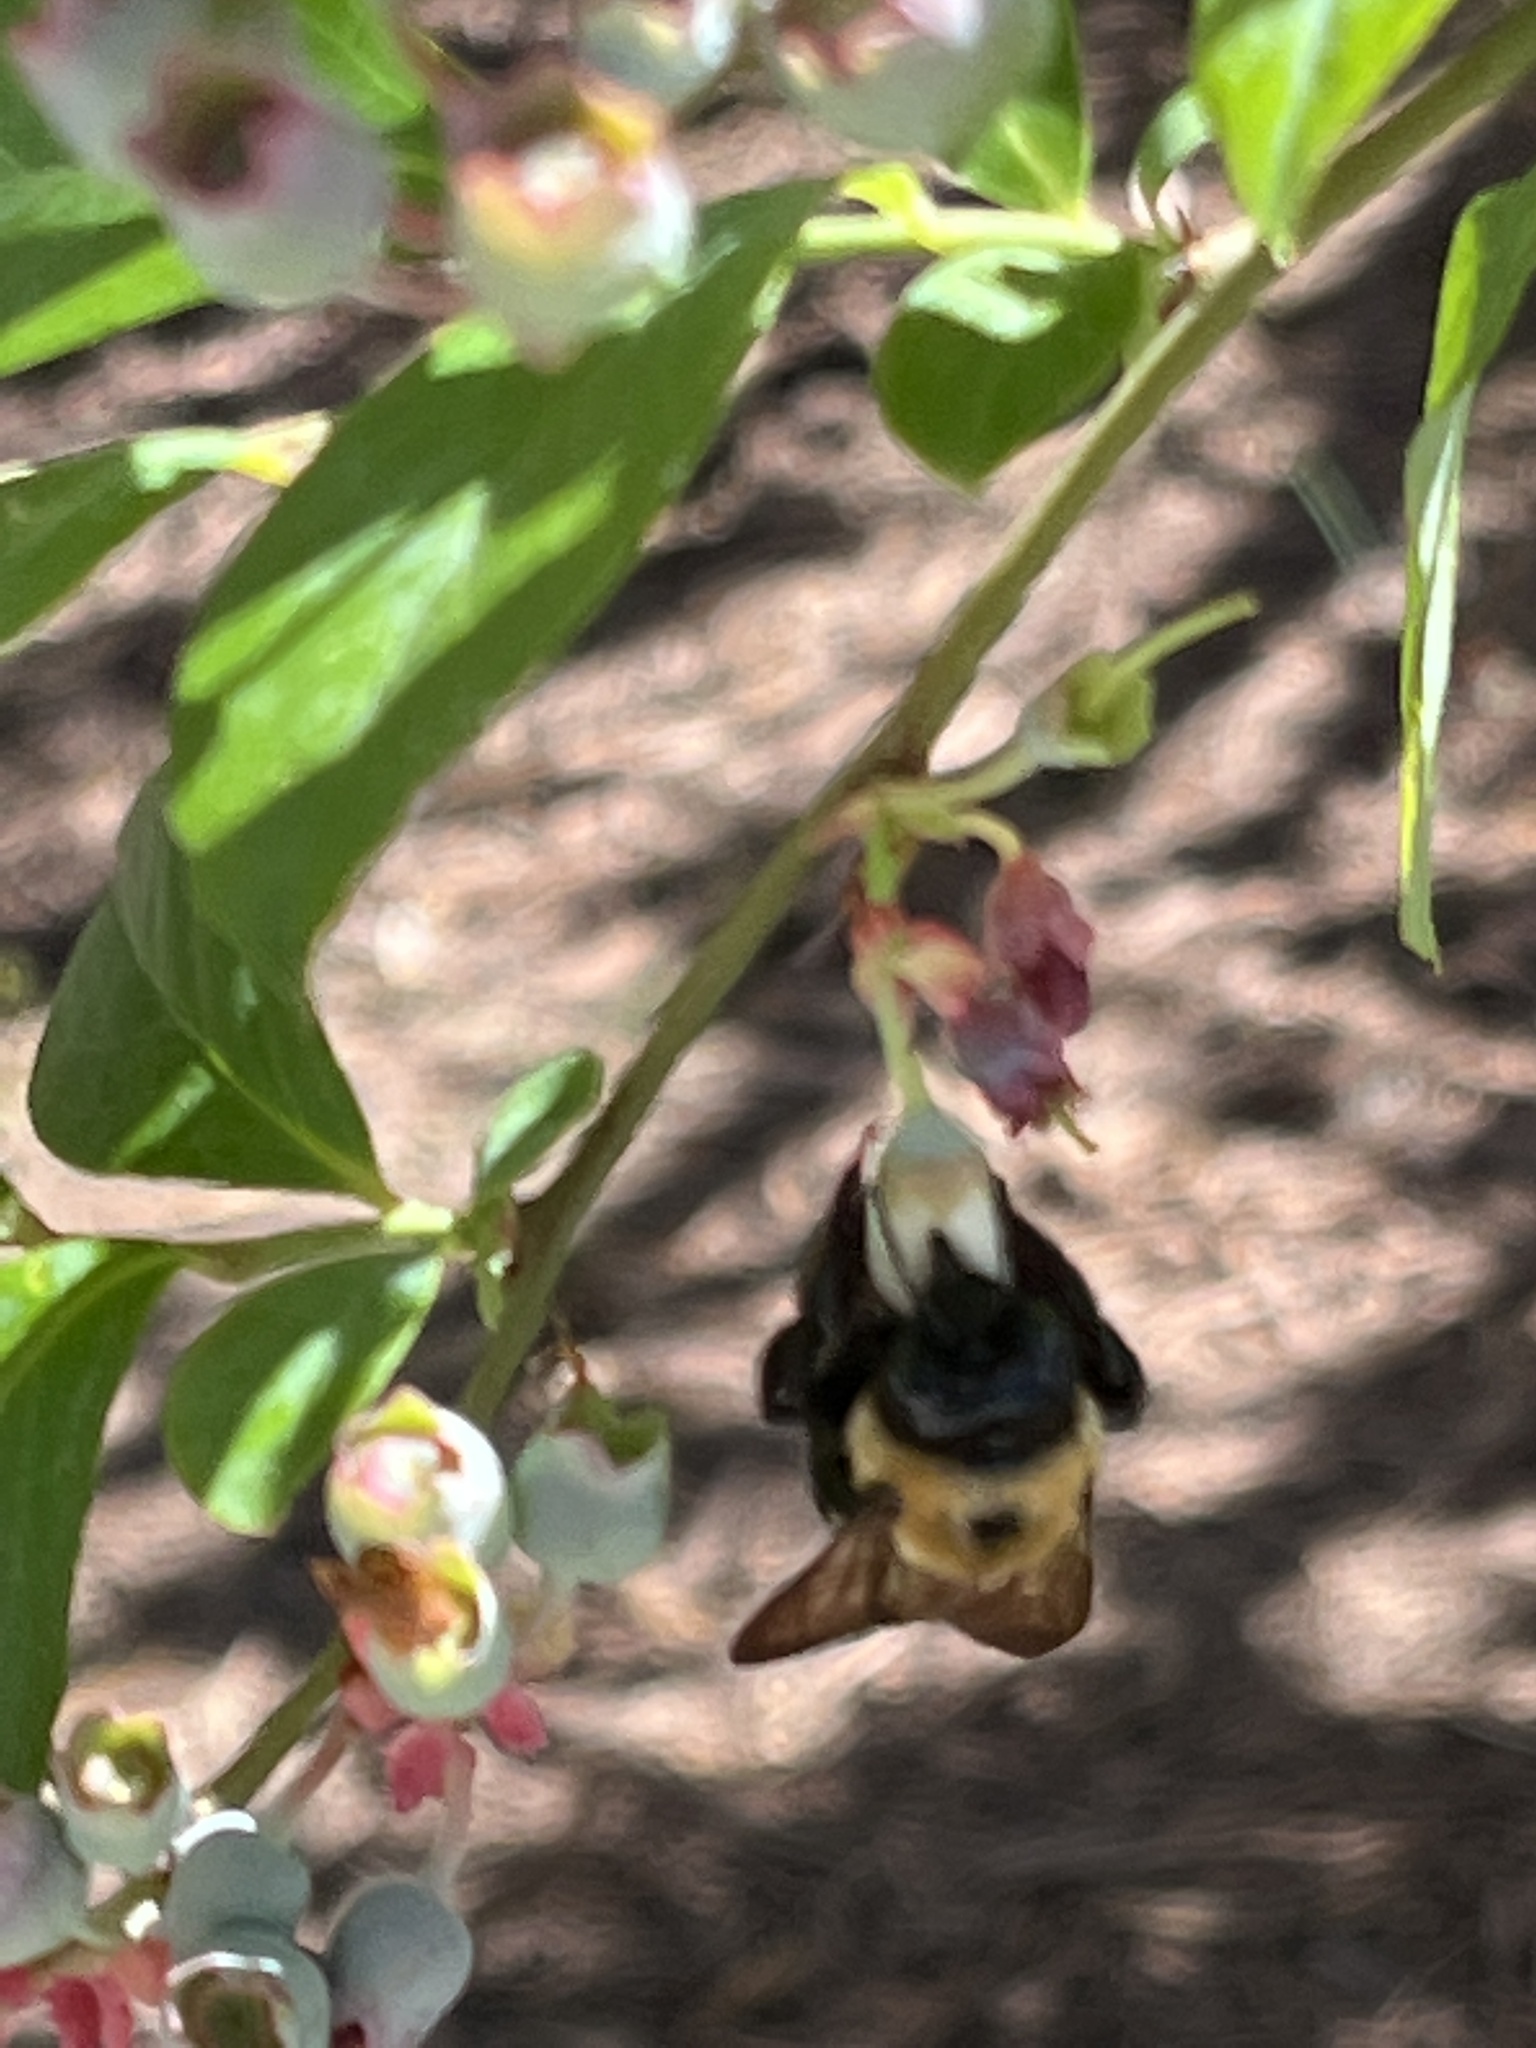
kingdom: Animalia
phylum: Arthropoda
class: Insecta
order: Hymenoptera
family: Apidae
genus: Xylocopa
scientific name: Xylocopa virginica
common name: Carpenter bee
